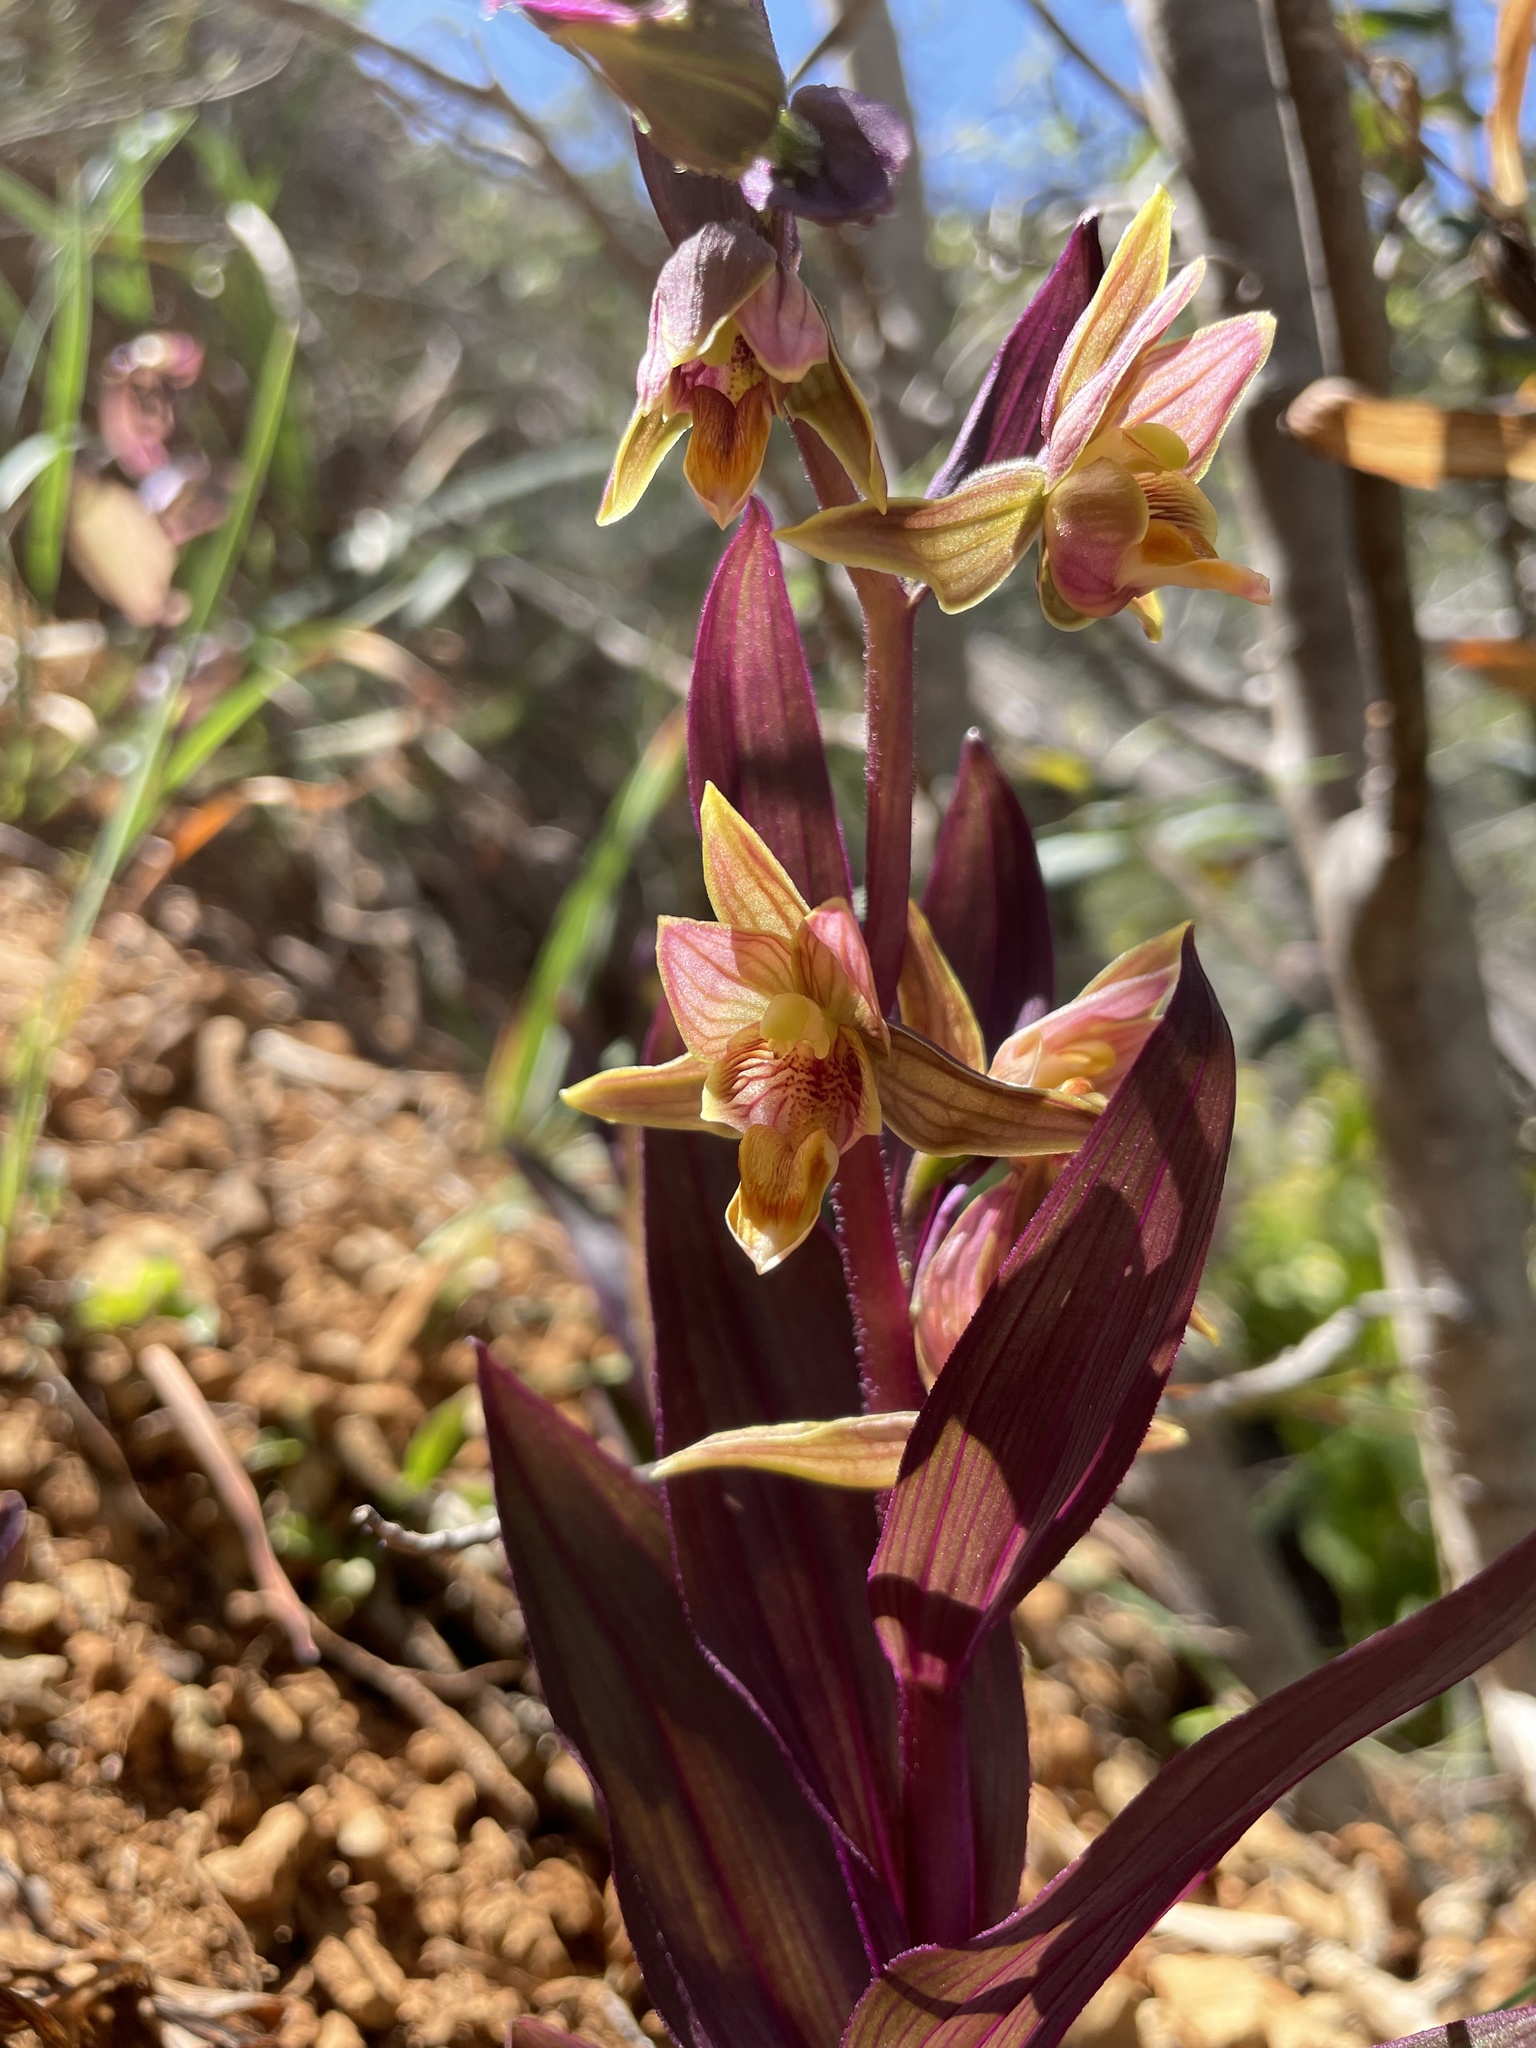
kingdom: Plantae
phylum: Tracheophyta
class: Liliopsida
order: Asparagales
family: Orchidaceae
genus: Epipactis
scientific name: Epipactis gigantea
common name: Chatterbox
